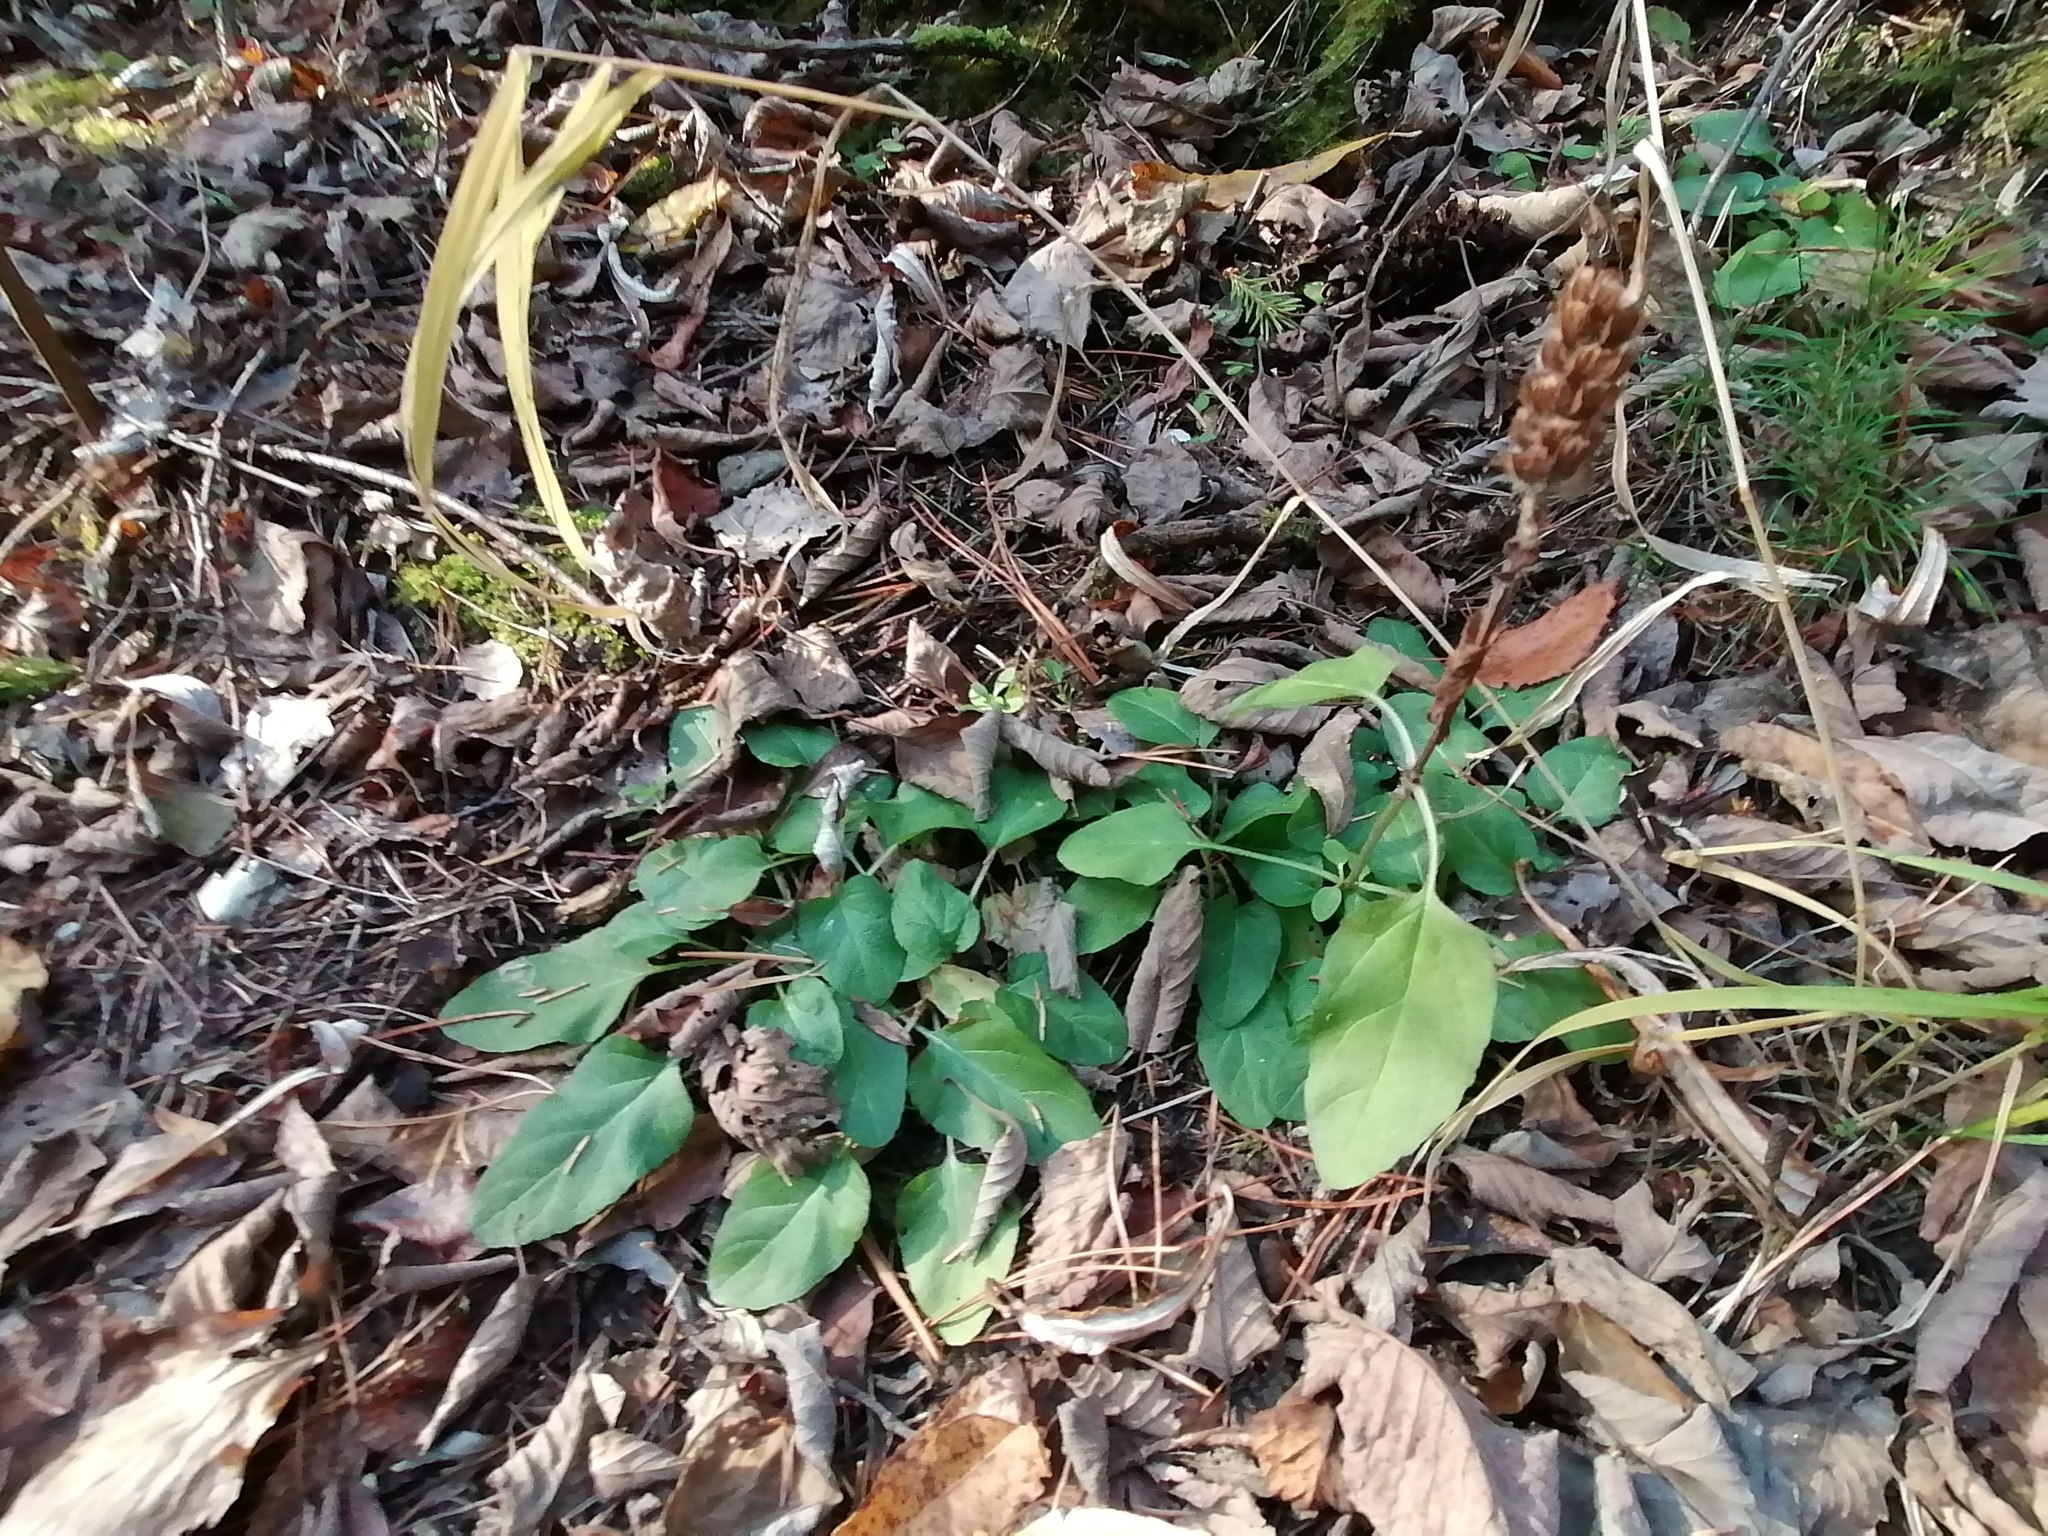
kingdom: Plantae
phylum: Tracheophyta
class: Magnoliopsida
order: Lamiales
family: Lamiaceae
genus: Prunella
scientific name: Prunella vulgaris
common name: Heal-all
